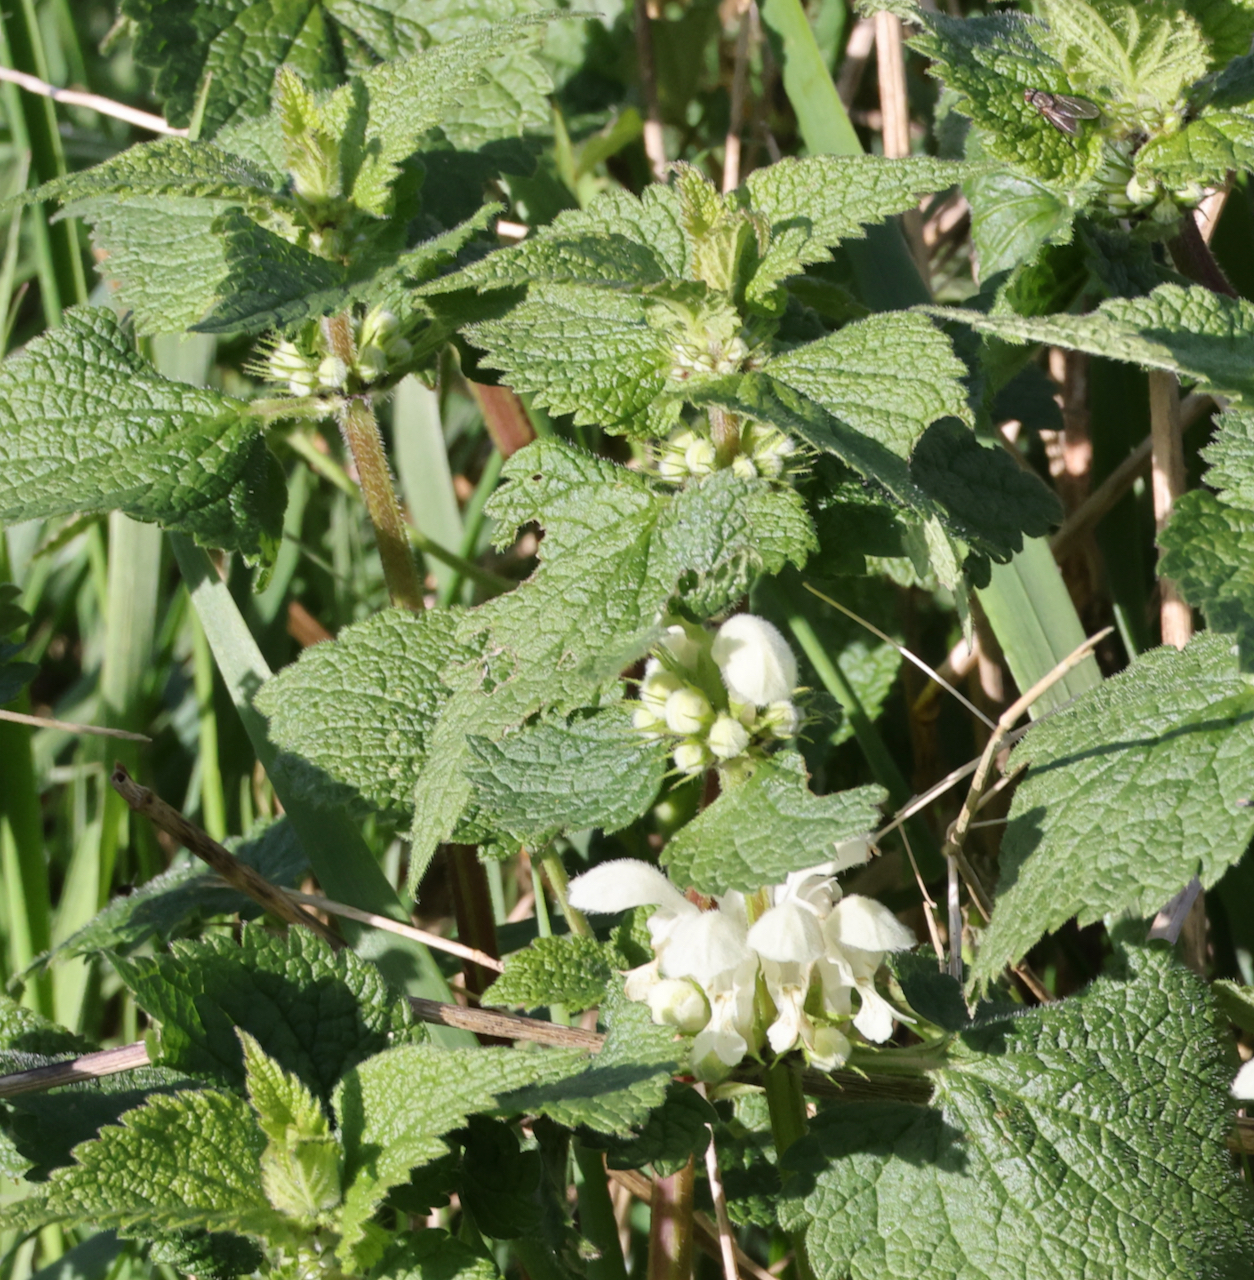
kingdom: Plantae
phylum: Tracheophyta
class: Magnoliopsida
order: Lamiales
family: Lamiaceae
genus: Lamium
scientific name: Lamium album
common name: White dead-nettle
